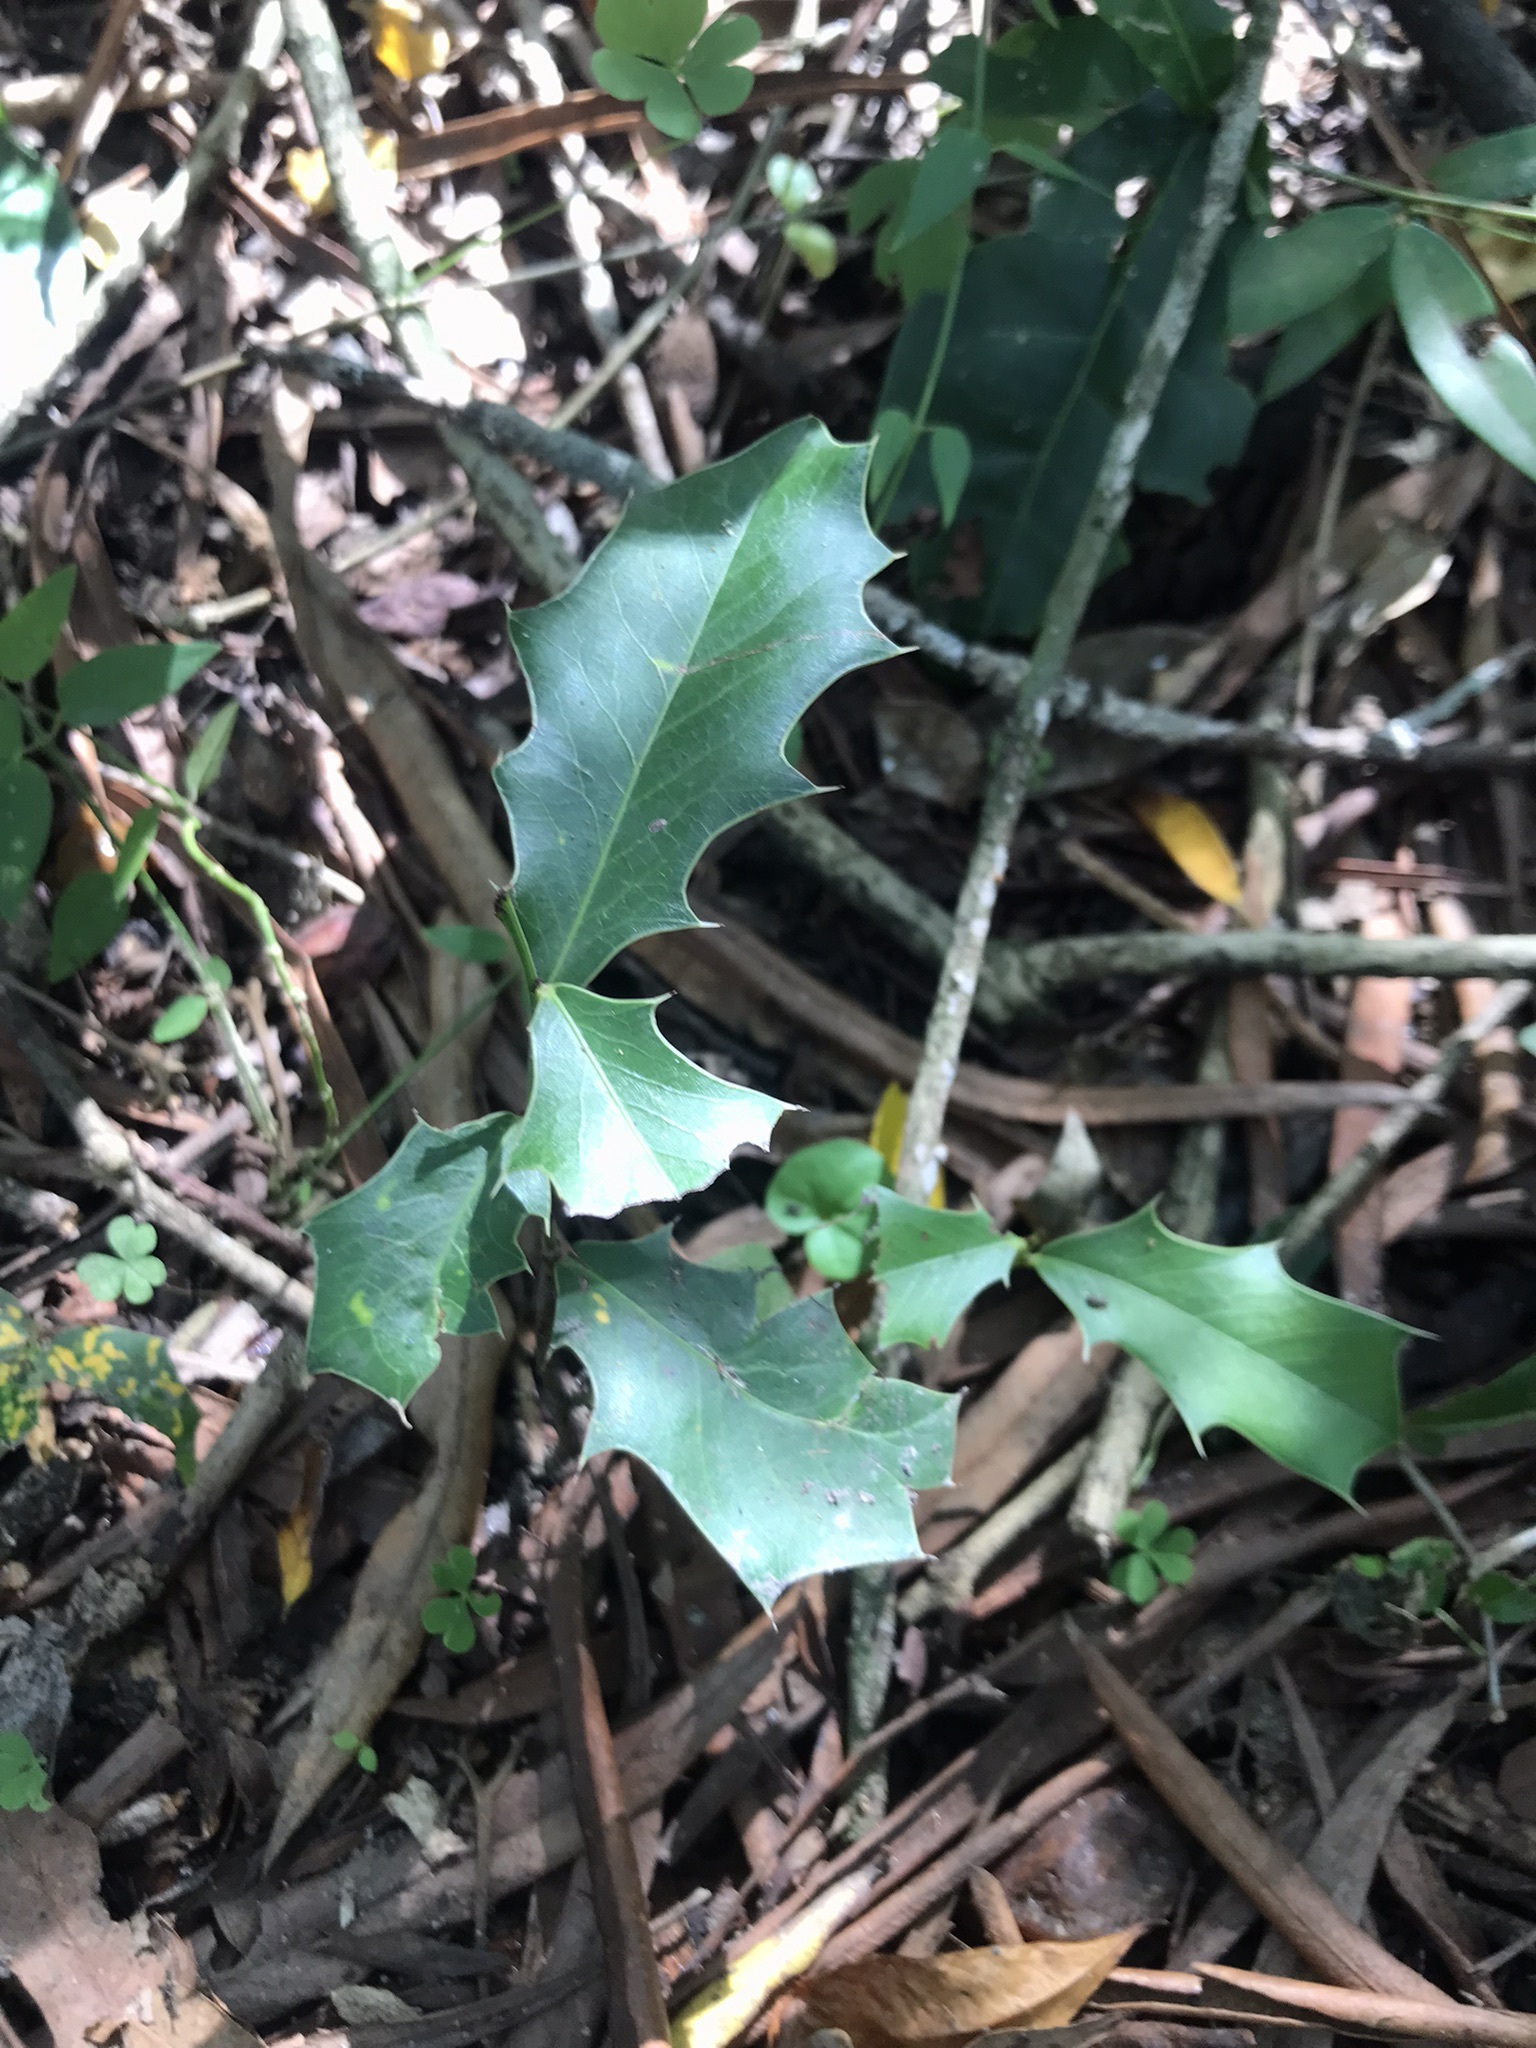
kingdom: Plantae
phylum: Tracheophyta
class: Magnoliopsida
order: Celastrales
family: Celastraceae
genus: Monteverdia
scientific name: Monteverdia
